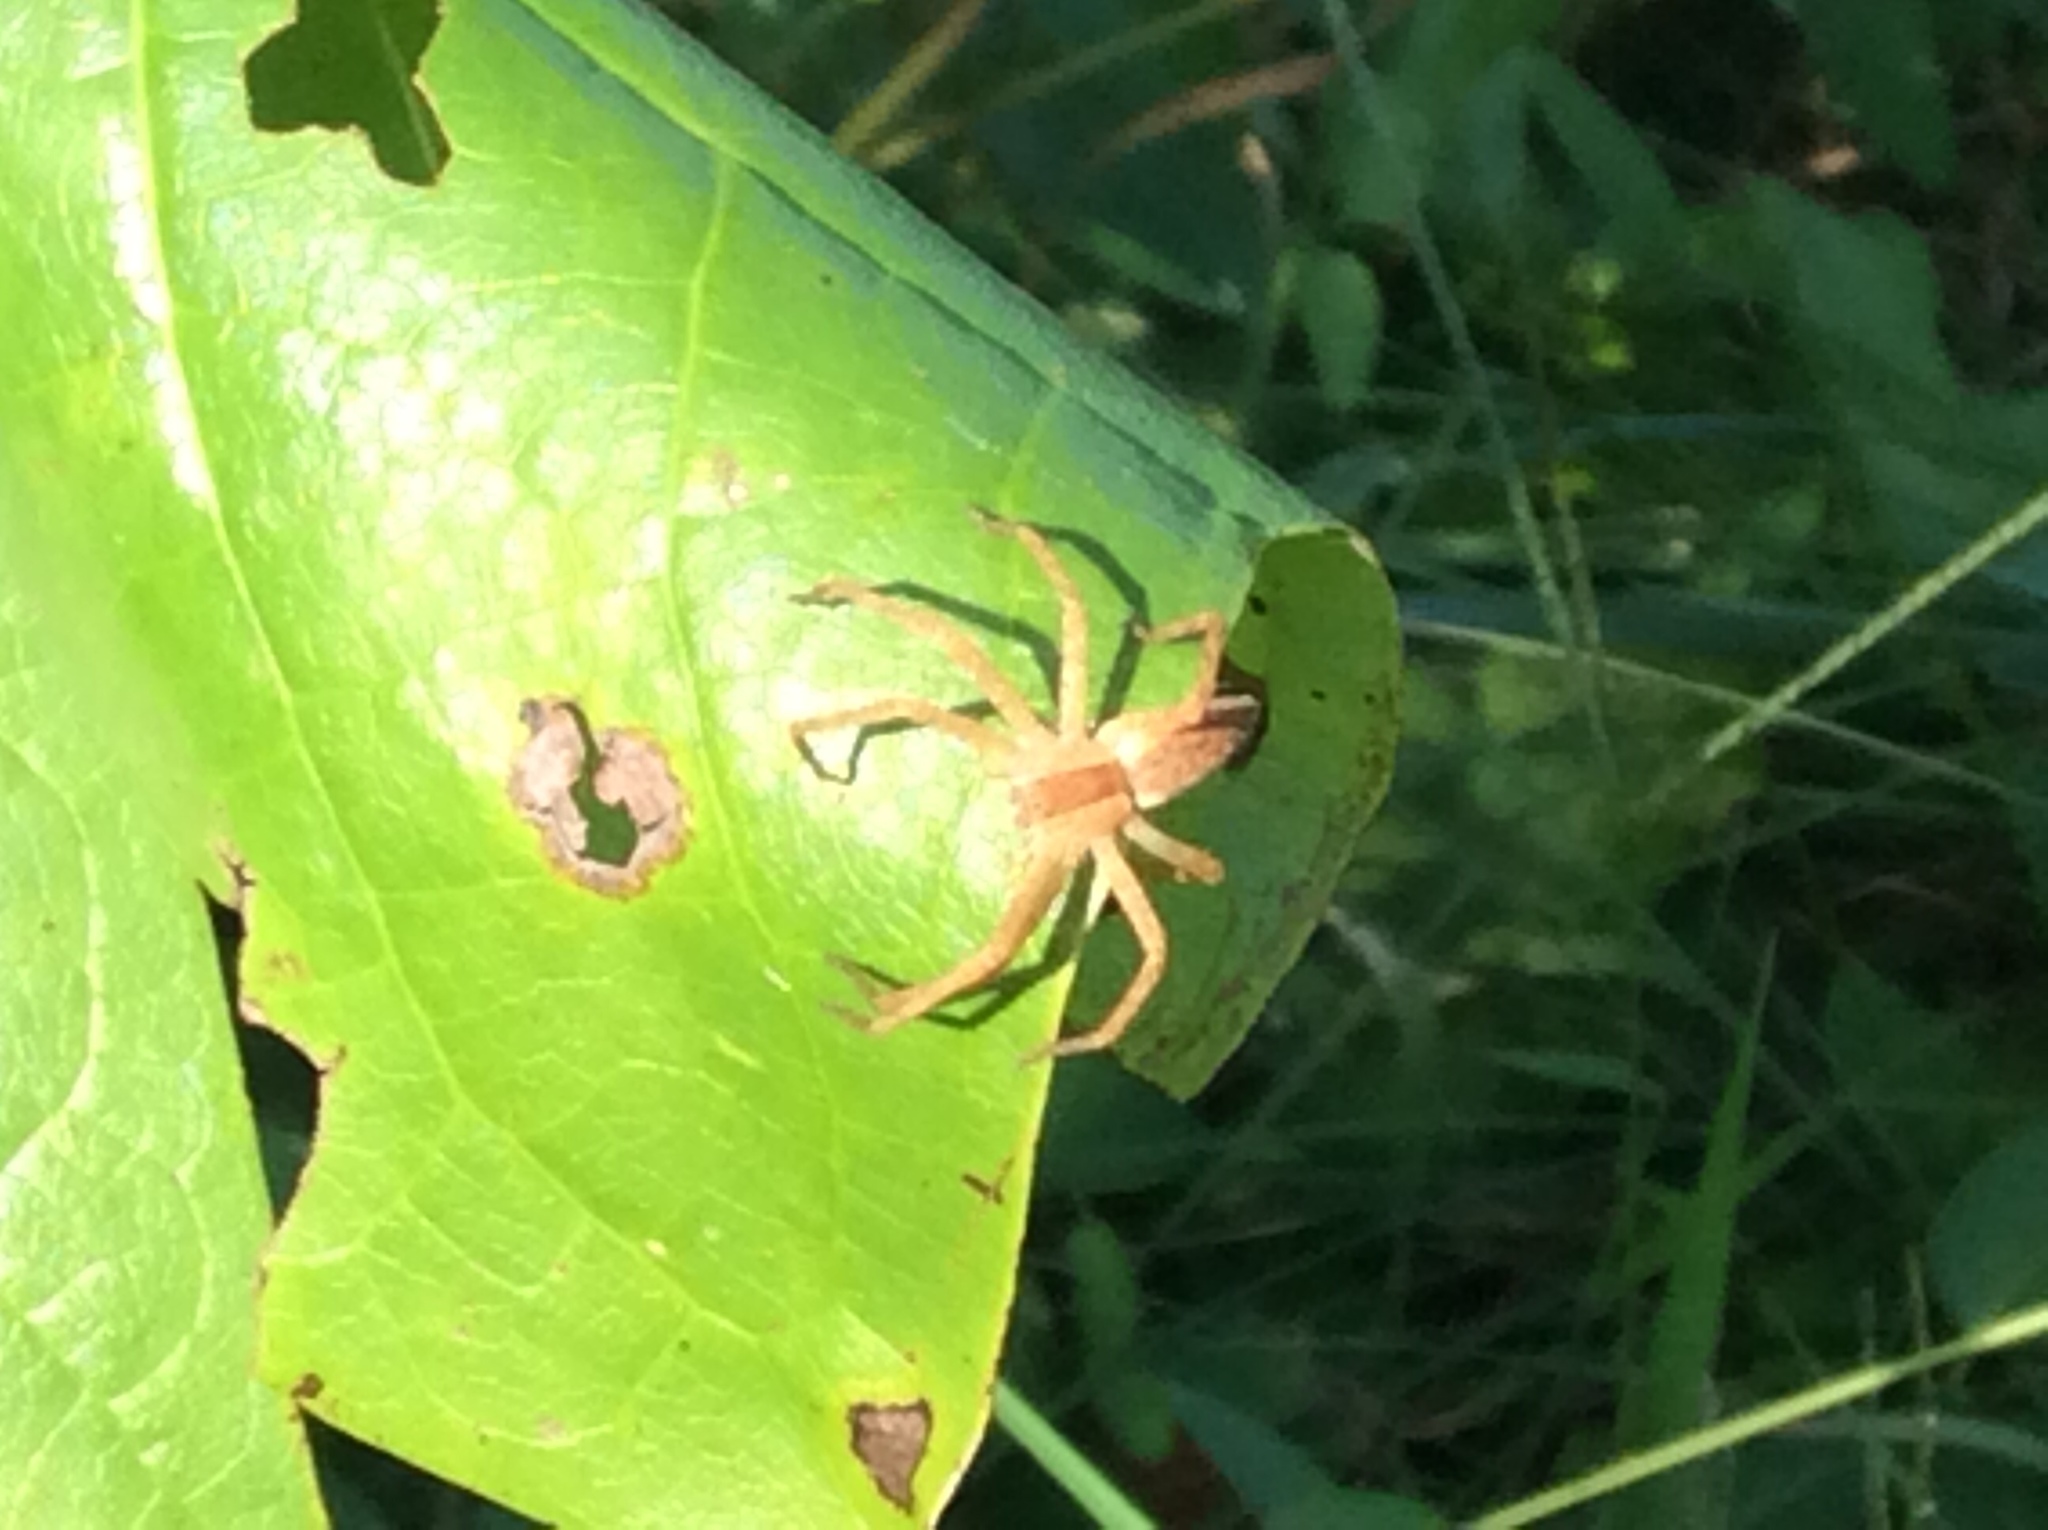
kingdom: Animalia
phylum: Arthropoda
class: Arachnida
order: Araneae
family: Pisauridae
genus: Pisaurina
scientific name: Pisaurina mira
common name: American nursery web spider
